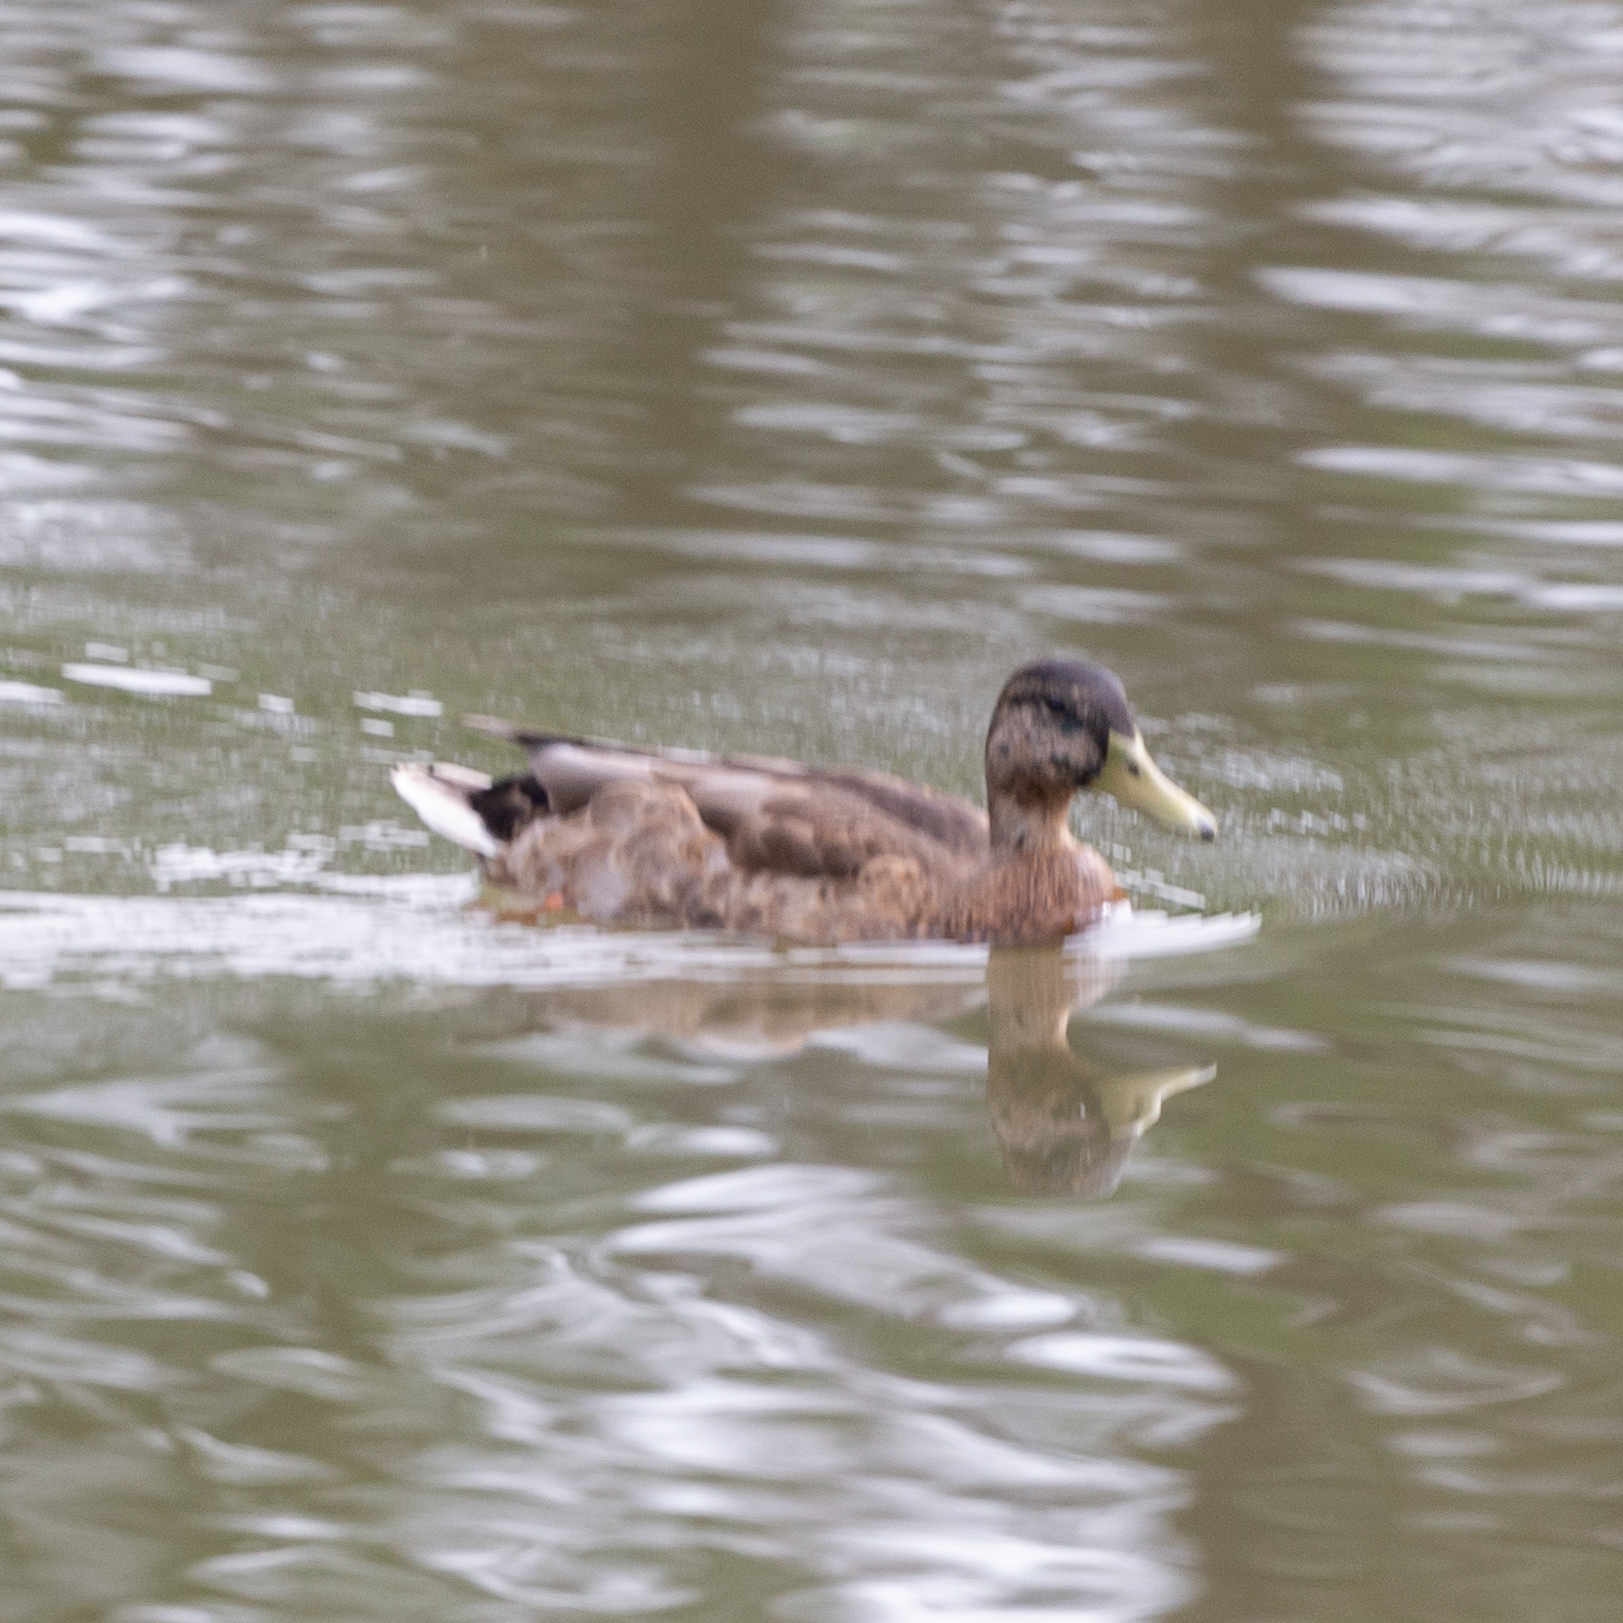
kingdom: Animalia
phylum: Chordata
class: Aves
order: Anseriformes
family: Anatidae
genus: Anas
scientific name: Anas platyrhynchos
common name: Mallard
